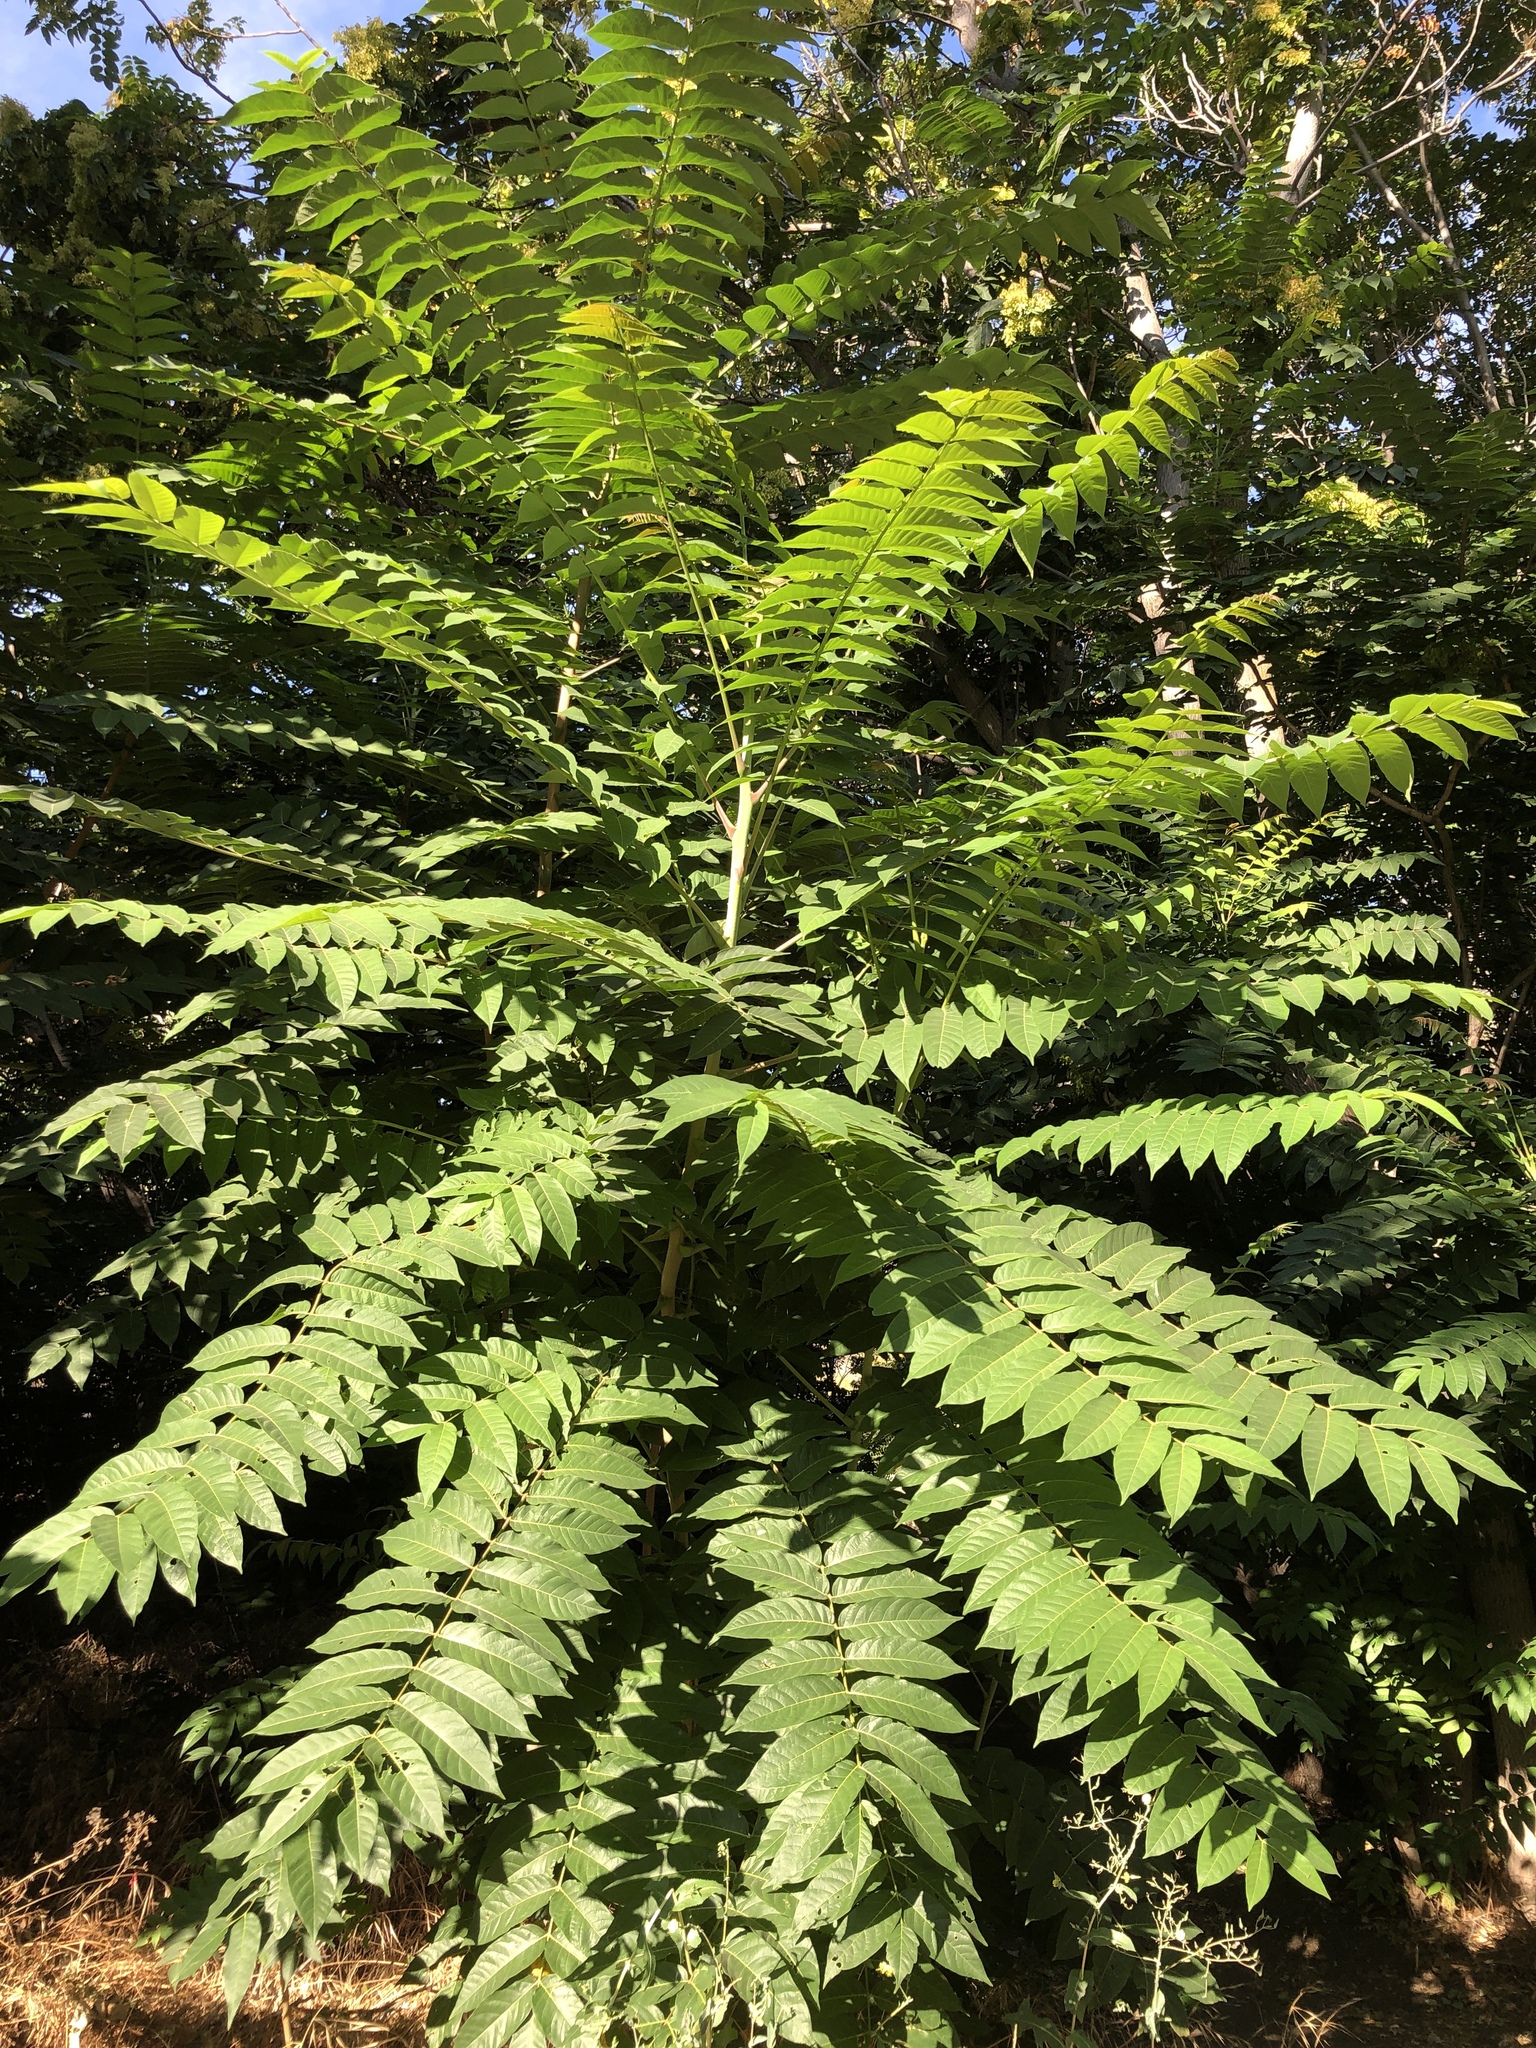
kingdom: Plantae
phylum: Tracheophyta
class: Magnoliopsida
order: Sapindales
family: Simaroubaceae
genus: Ailanthus
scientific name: Ailanthus altissima
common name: Tree-of-heaven
